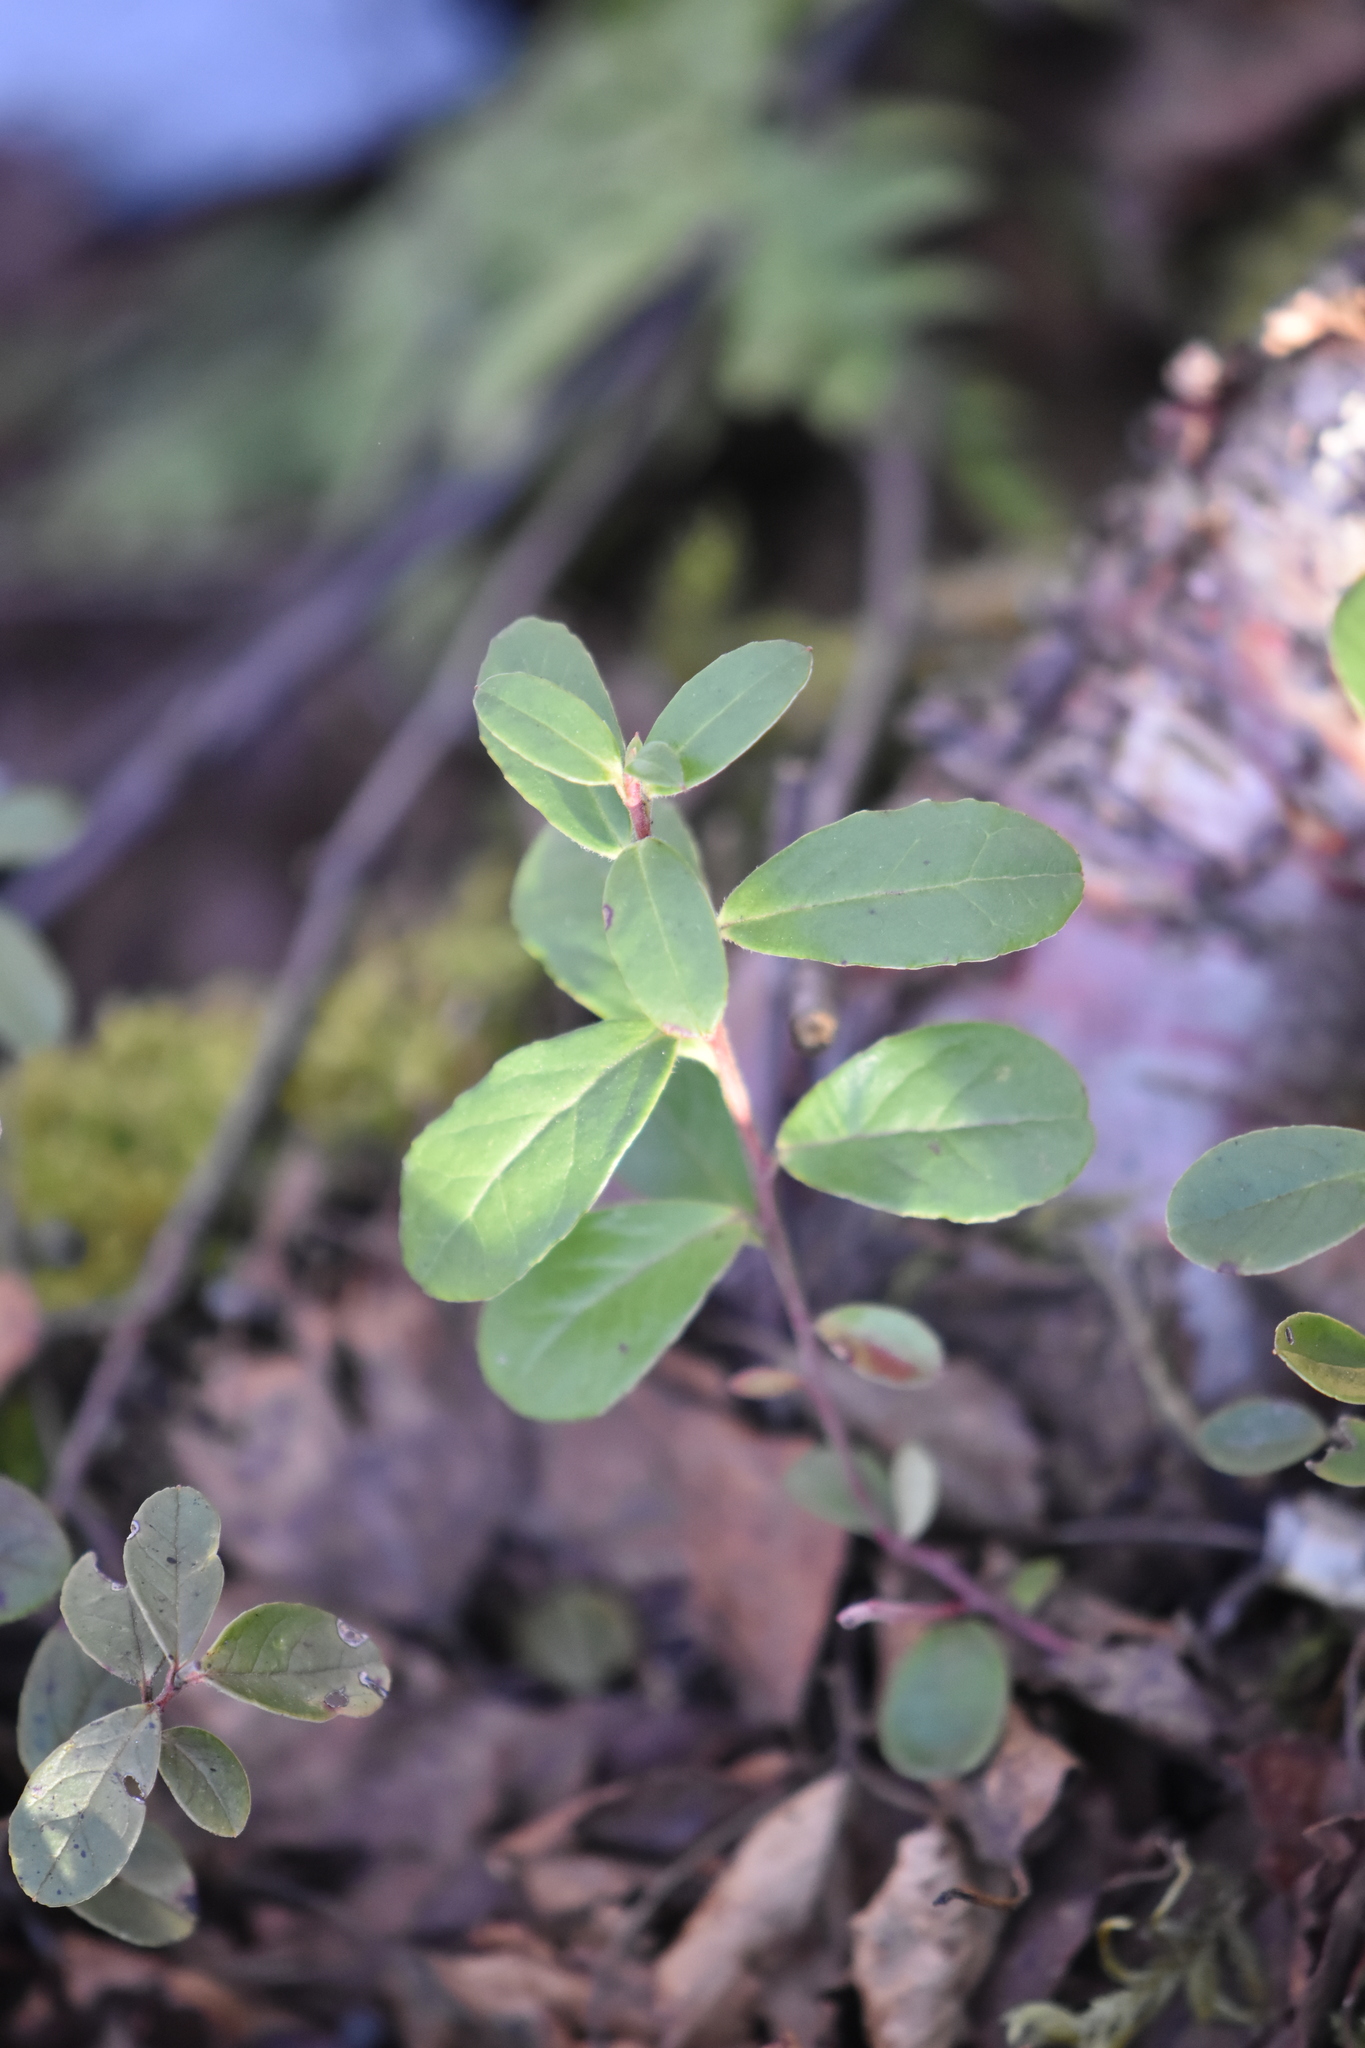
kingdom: Plantae
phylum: Tracheophyta
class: Magnoliopsida
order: Ericales
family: Ericaceae
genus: Vaccinium
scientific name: Vaccinium vitis-idaea
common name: Cowberry
